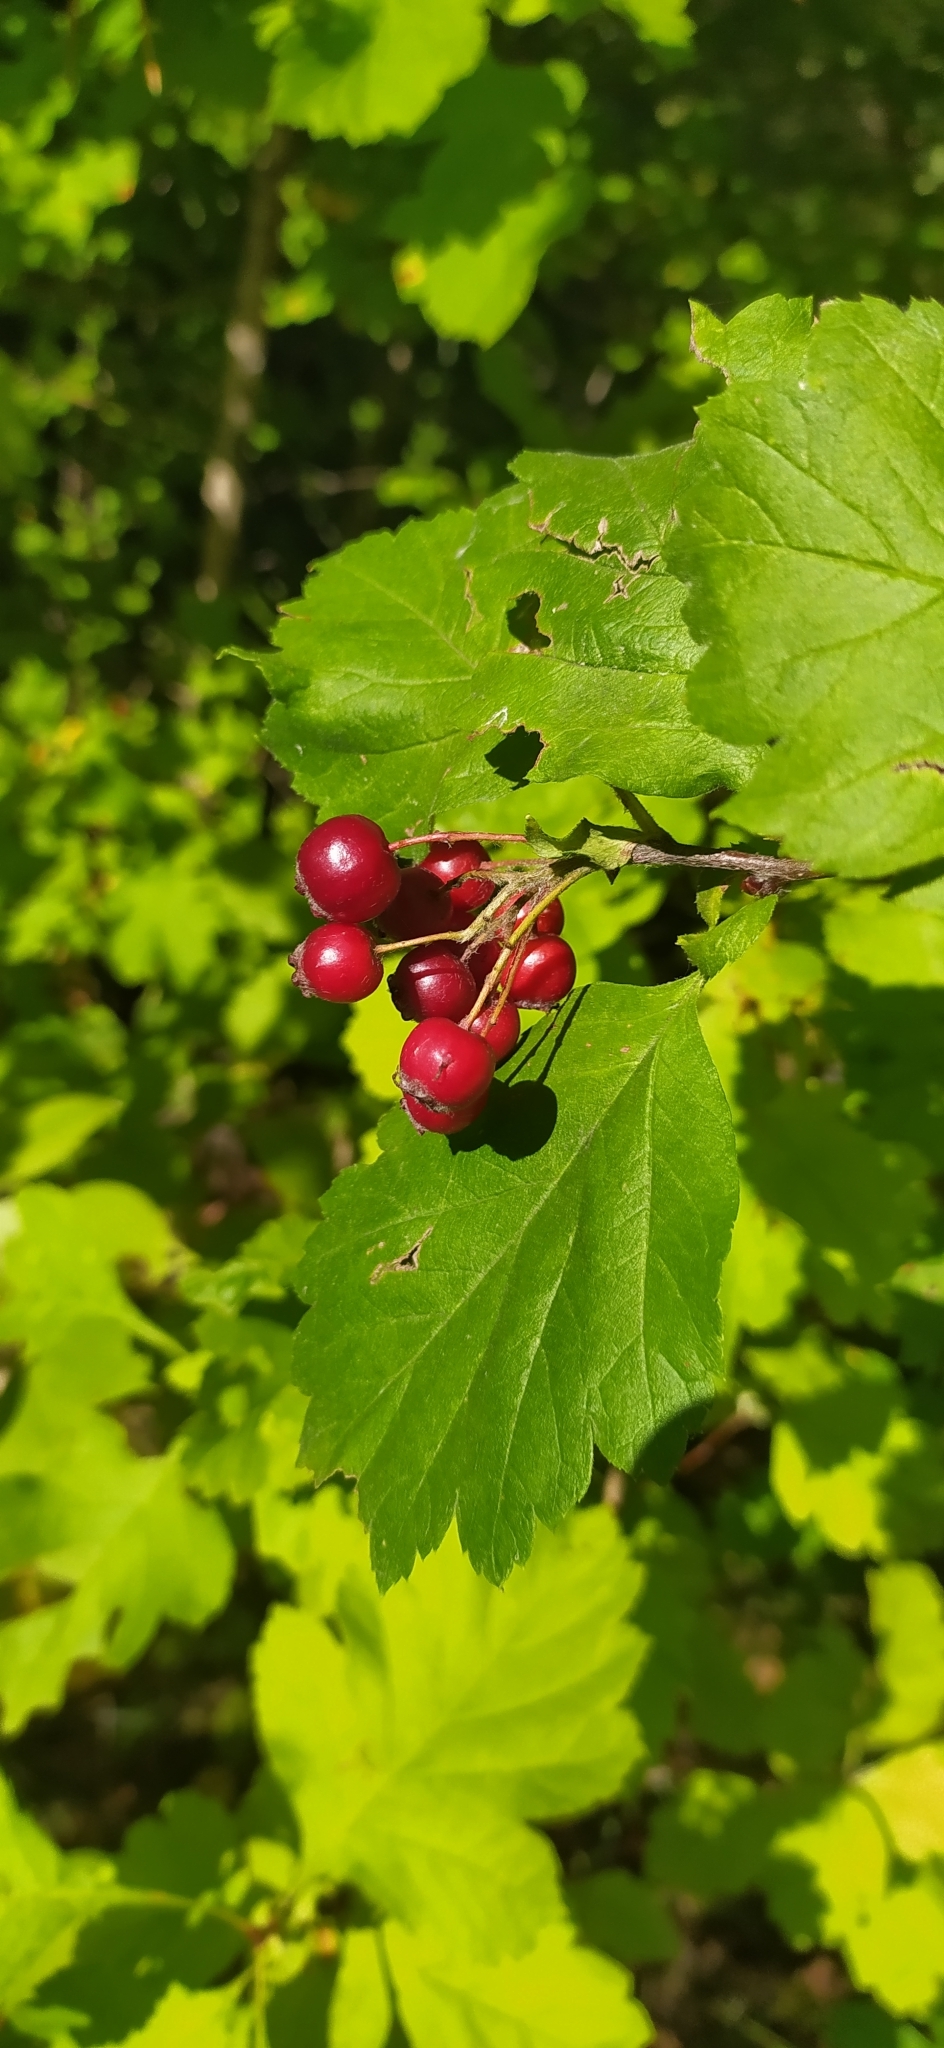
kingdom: Plantae
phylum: Tracheophyta
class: Magnoliopsida
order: Rosales
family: Rosaceae
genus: Crataegus
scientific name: Crataegus sanguinea
